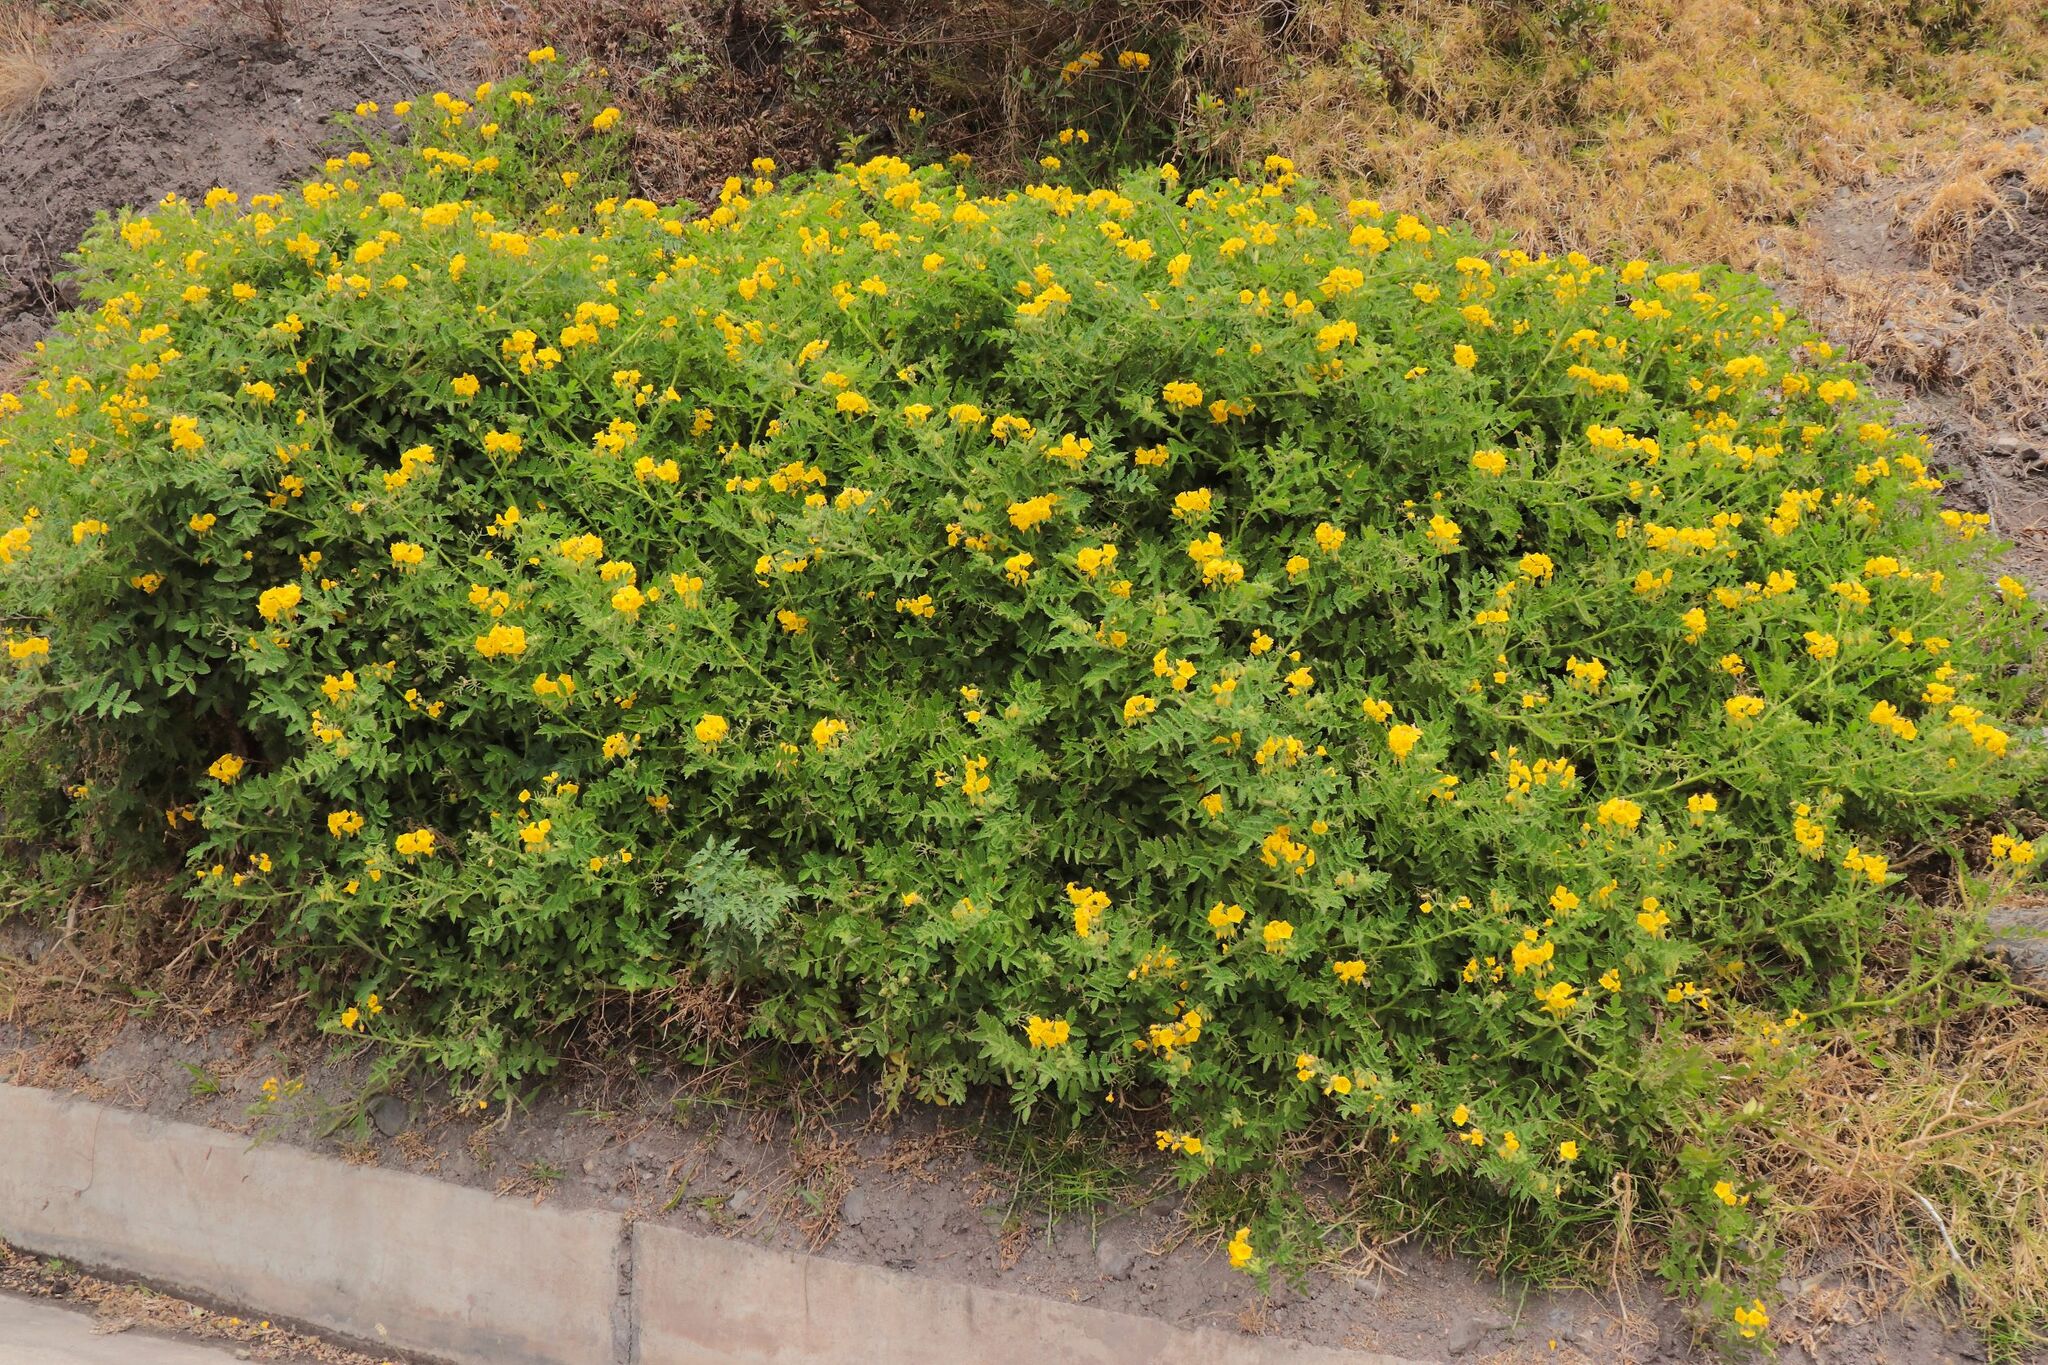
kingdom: Plantae
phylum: Tracheophyta
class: Magnoliopsida
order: Solanales
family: Solanaceae
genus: Solanum
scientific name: Solanum habrochaites
